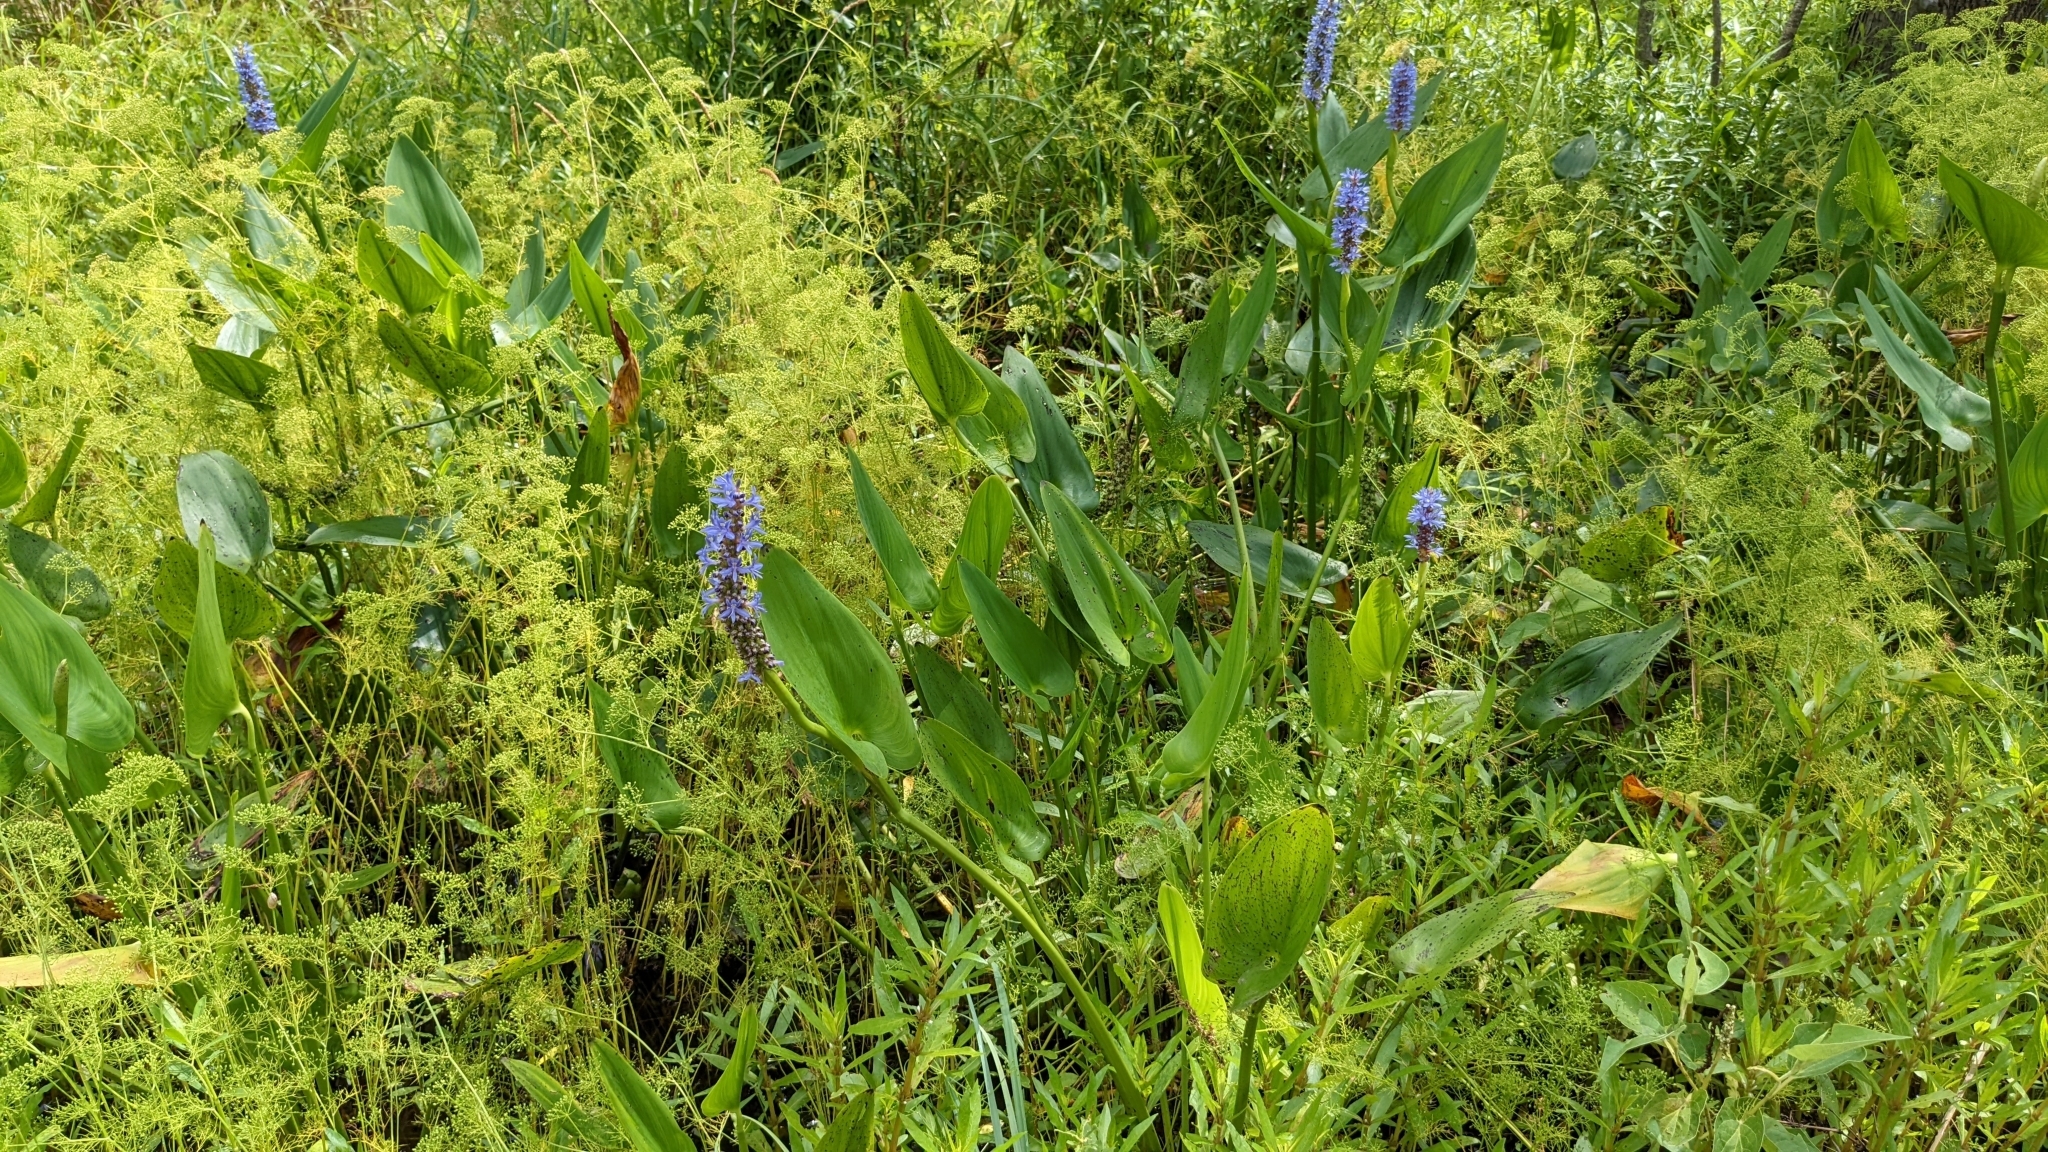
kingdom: Plantae
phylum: Tracheophyta
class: Liliopsida
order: Commelinales
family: Pontederiaceae
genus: Pontederia
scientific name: Pontederia cordata
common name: Pickerelweed
